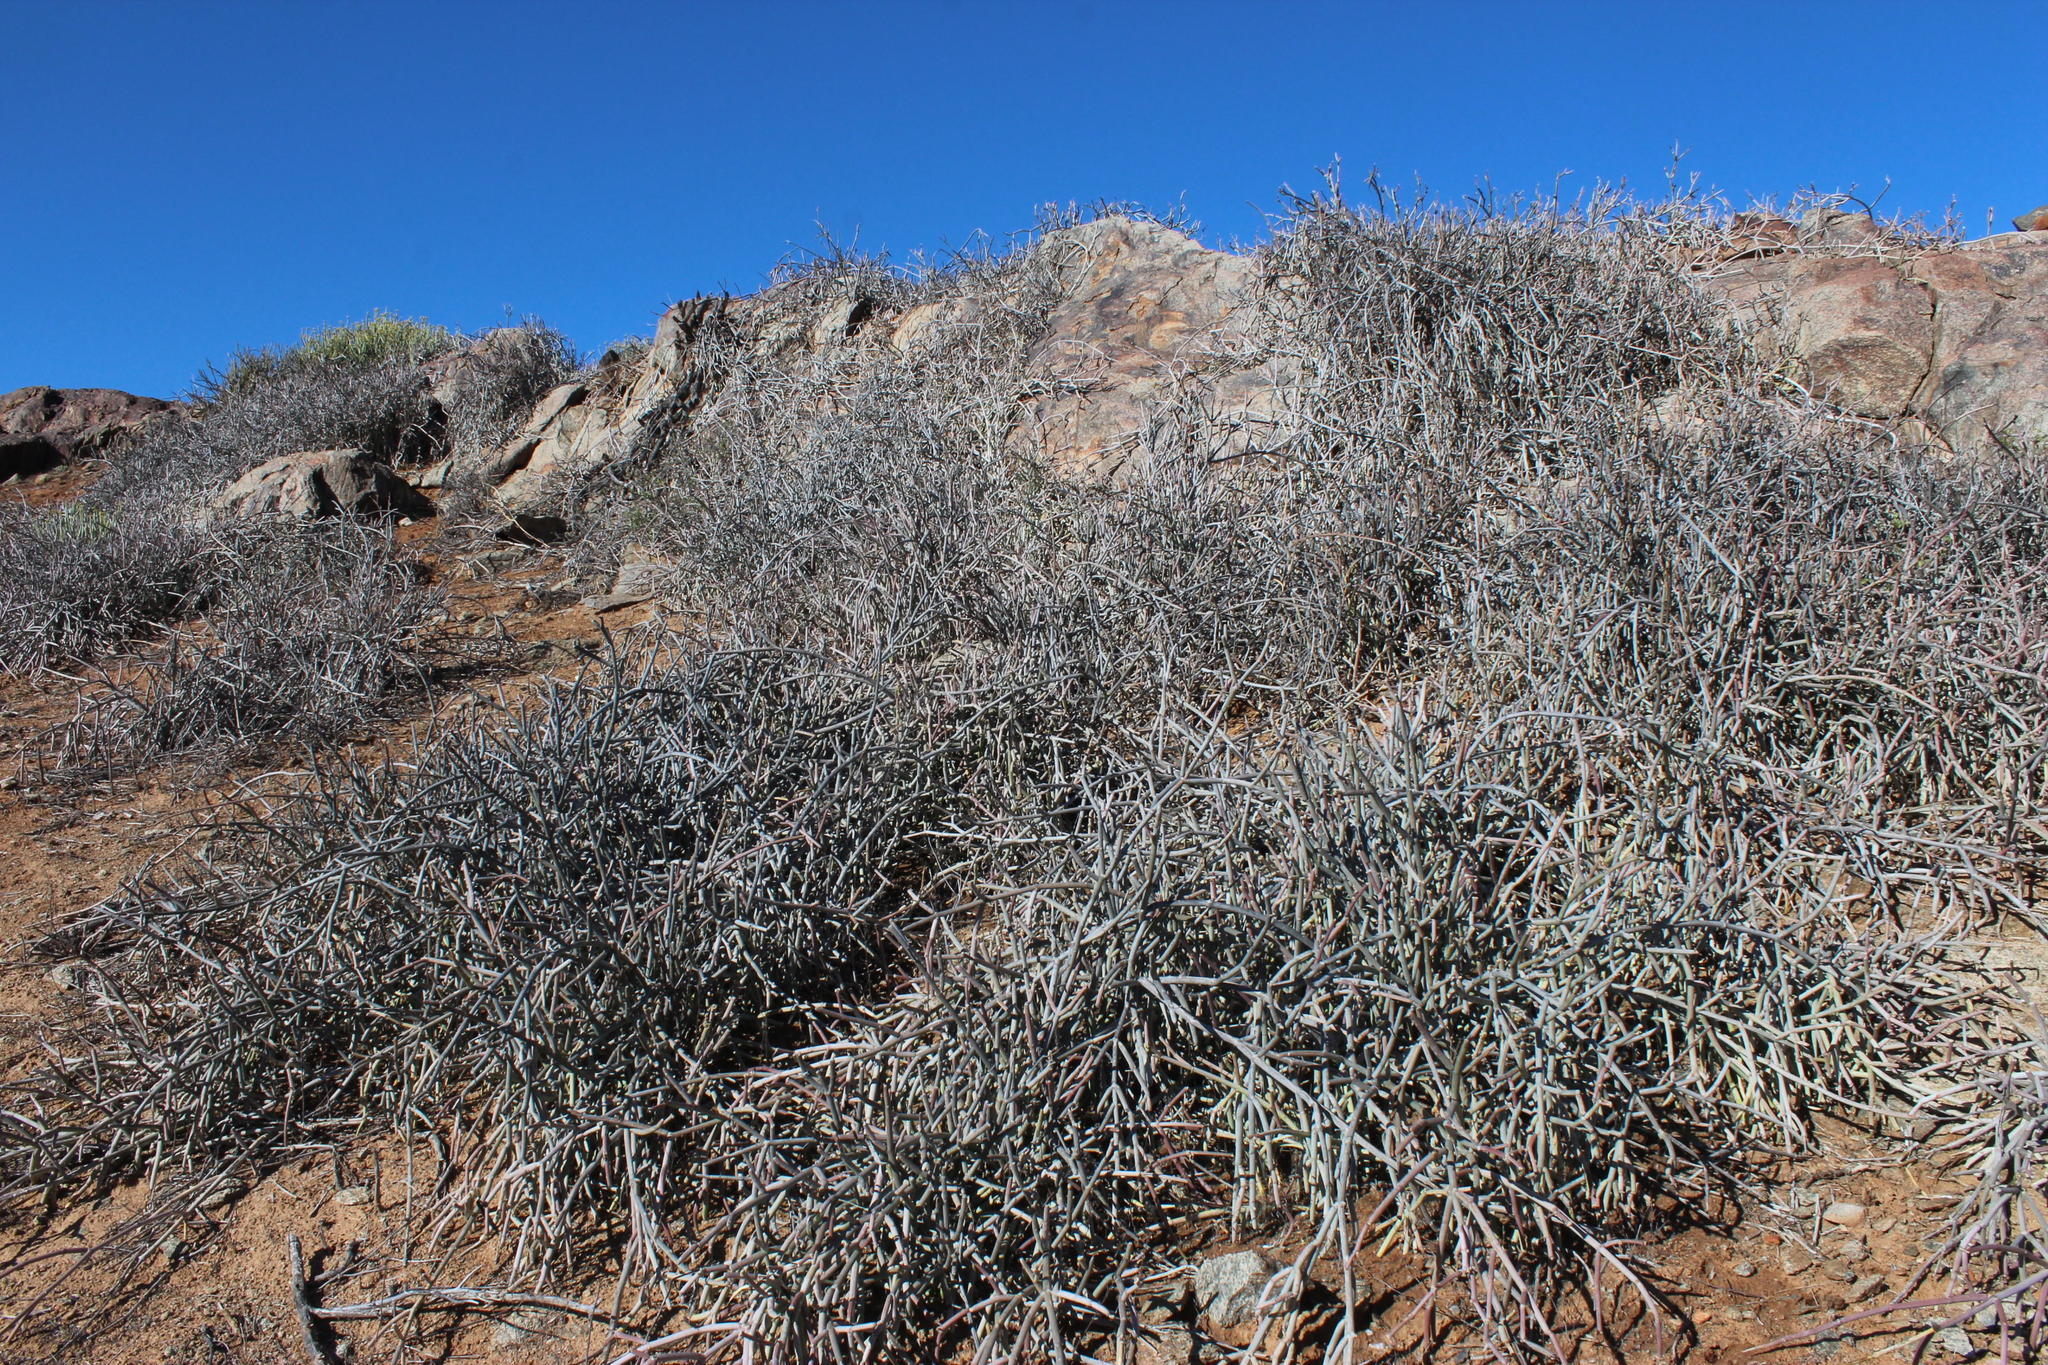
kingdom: Plantae
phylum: Tracheophyta
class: Magnoliopsida
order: Gentianales
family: Apocynaceae
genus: Cynanchum
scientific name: Cynanchum viminale
